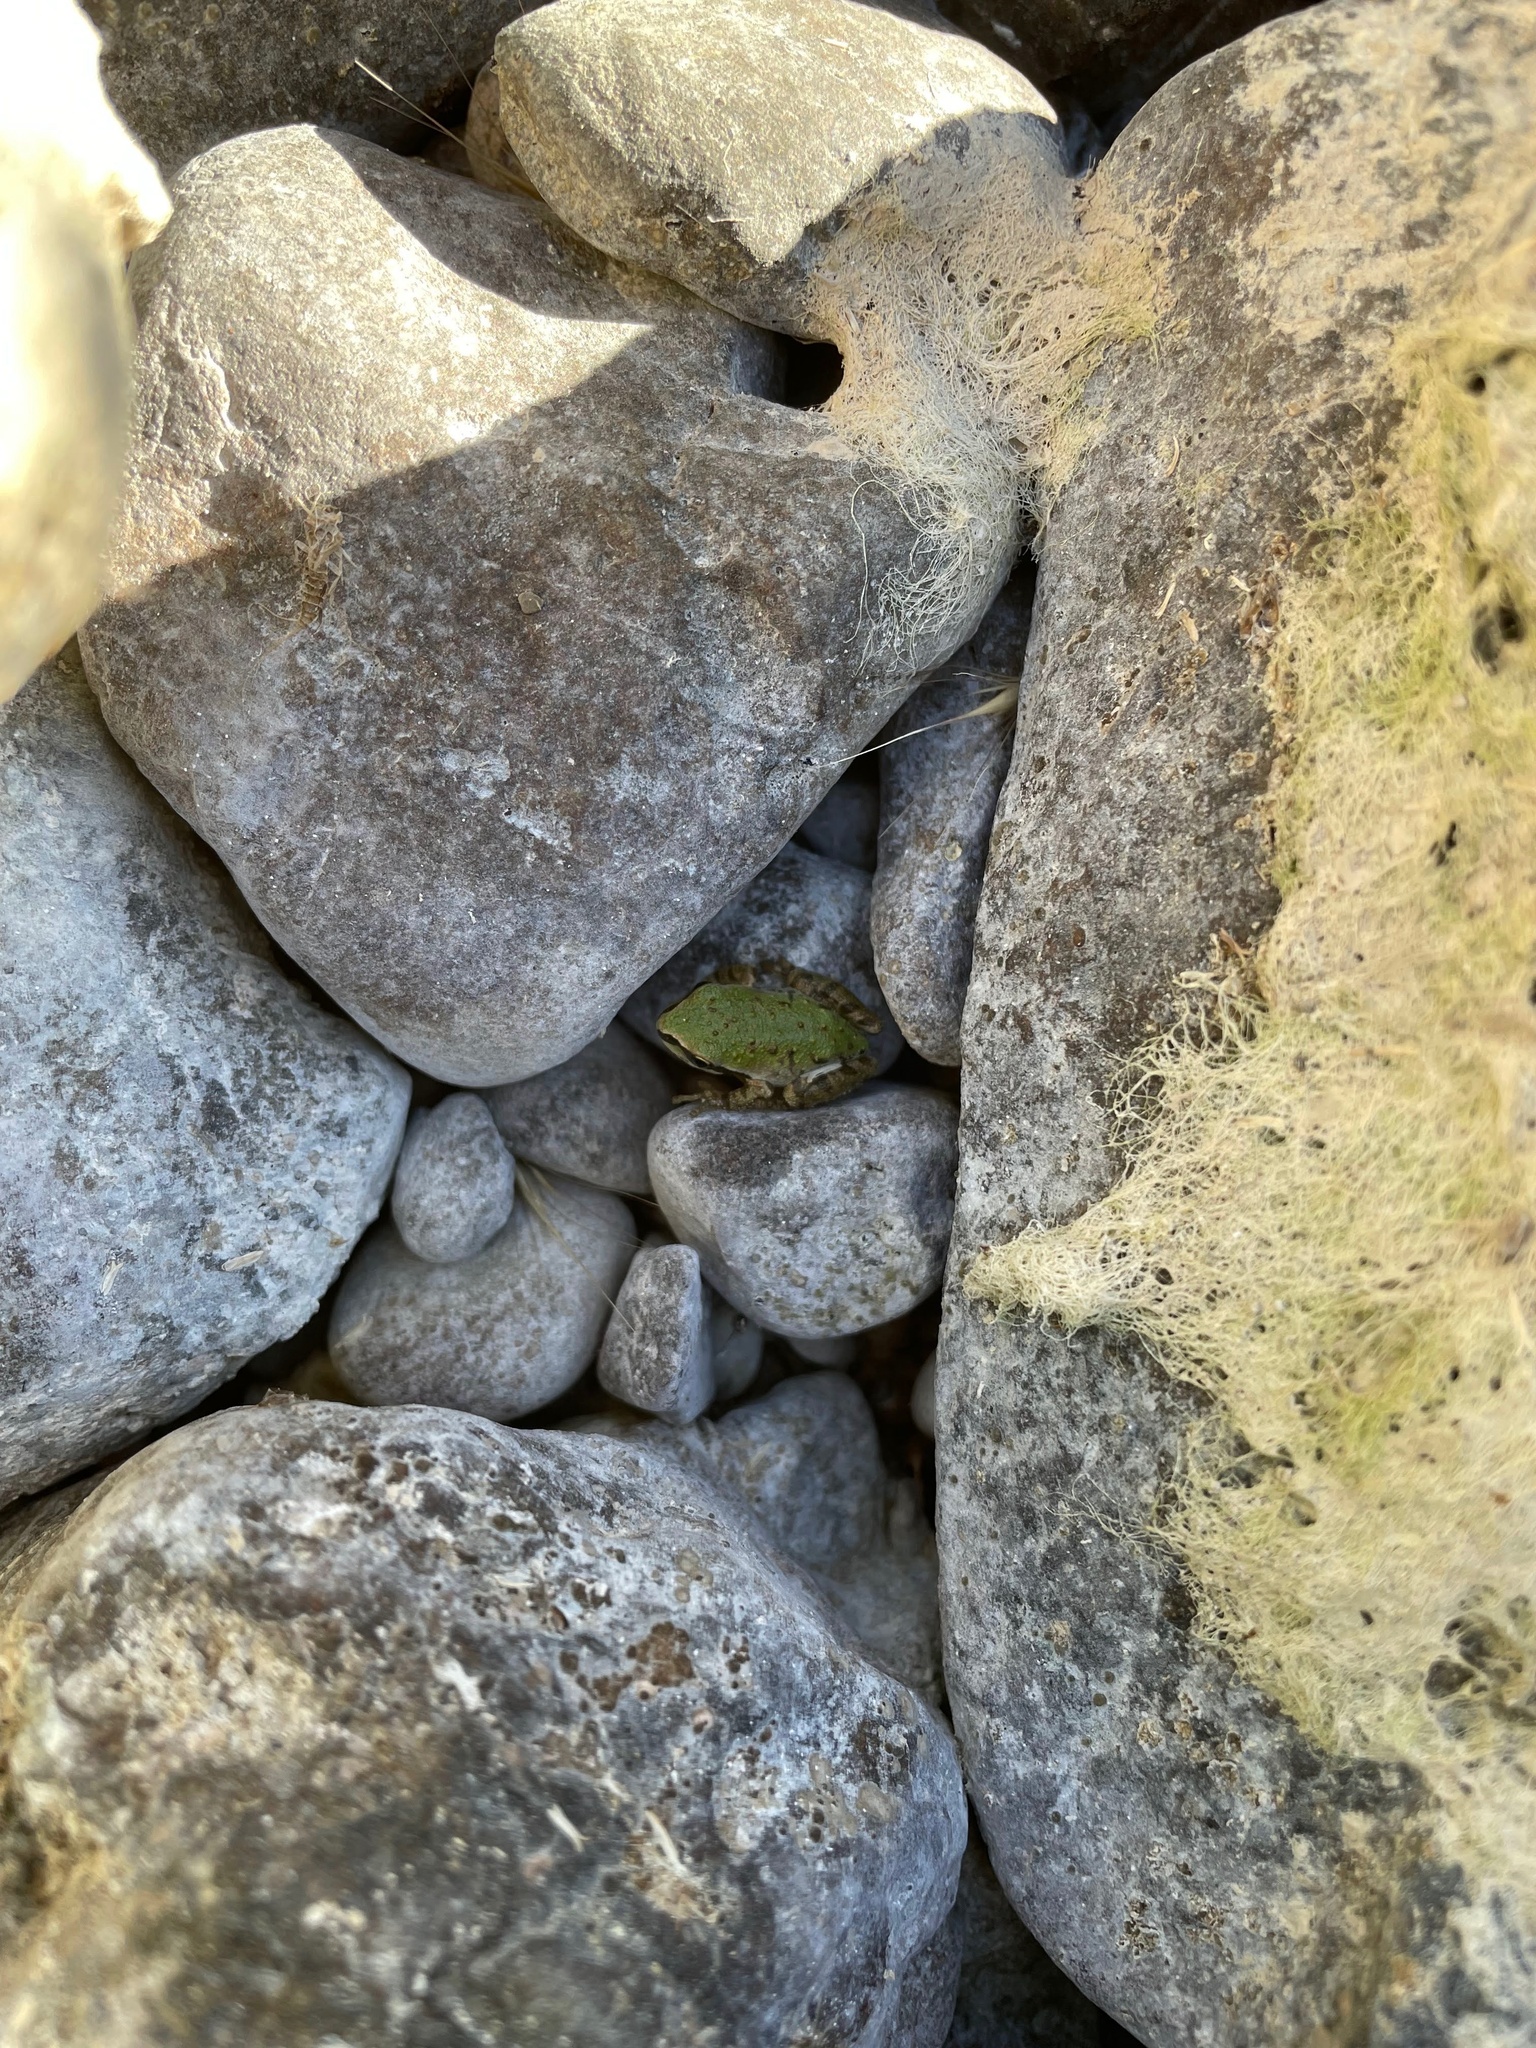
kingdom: Animalia
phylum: Chordata
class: Amphibia
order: Anura
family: Hylidae
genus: Pseudacris
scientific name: Pseudacris regilla
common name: Pacific chorus frog
